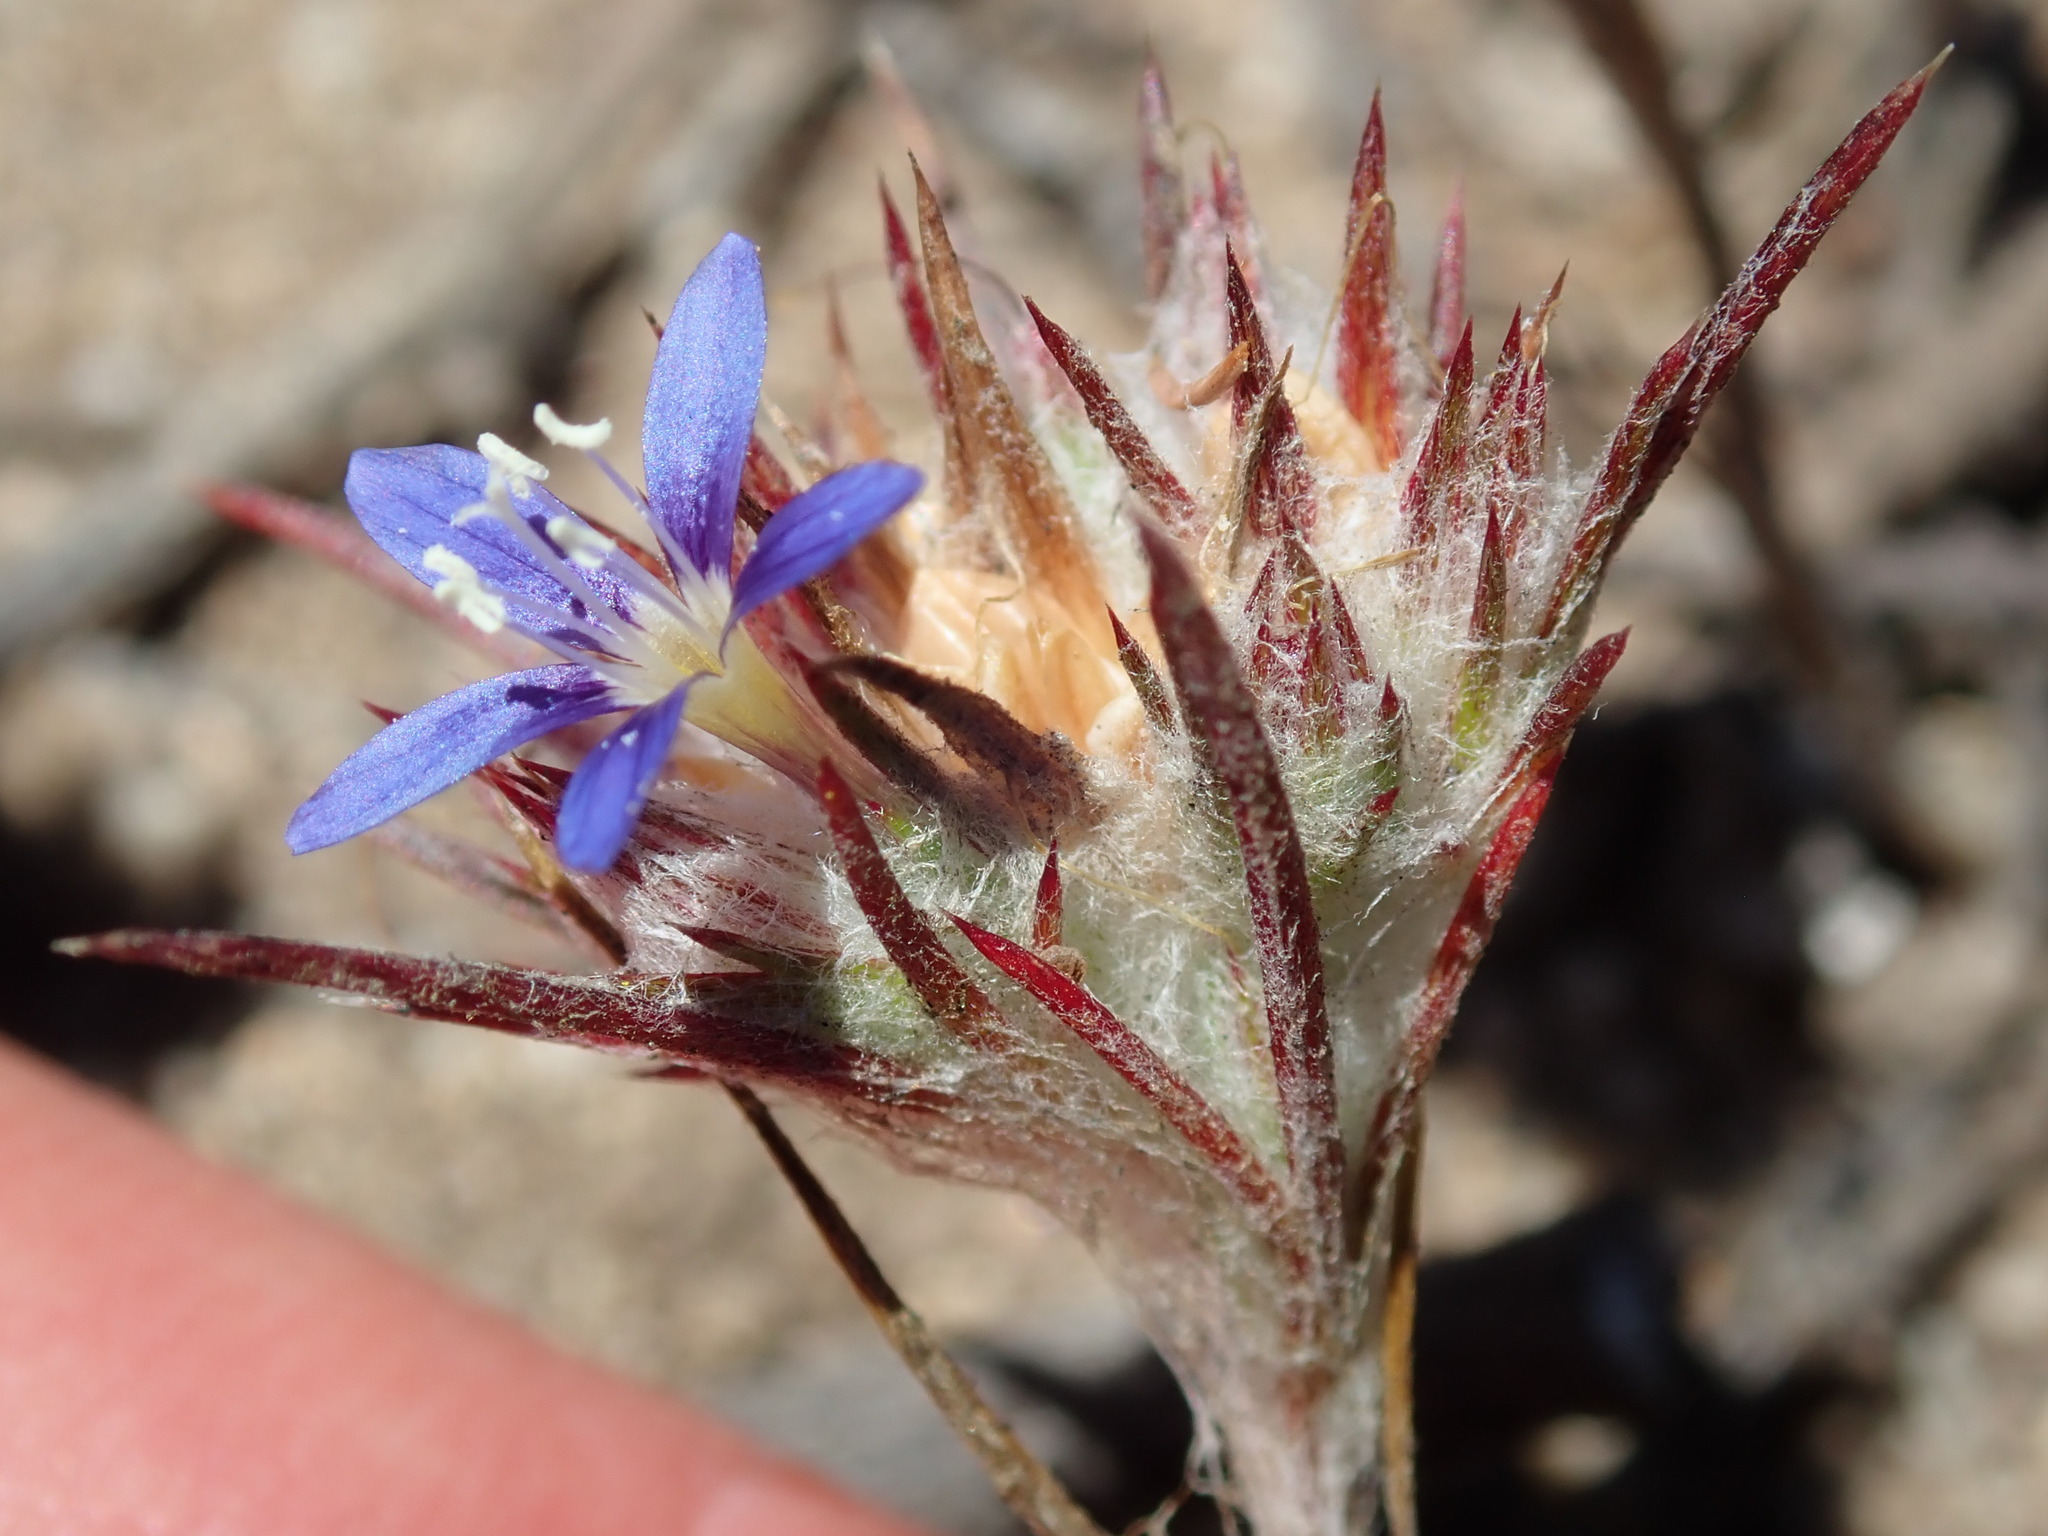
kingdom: Plantae
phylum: Tracheophyta
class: Magnoliopsida
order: Ericales
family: Polemoniaceae
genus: Eriastrum
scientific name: Eriastrum virgatum
